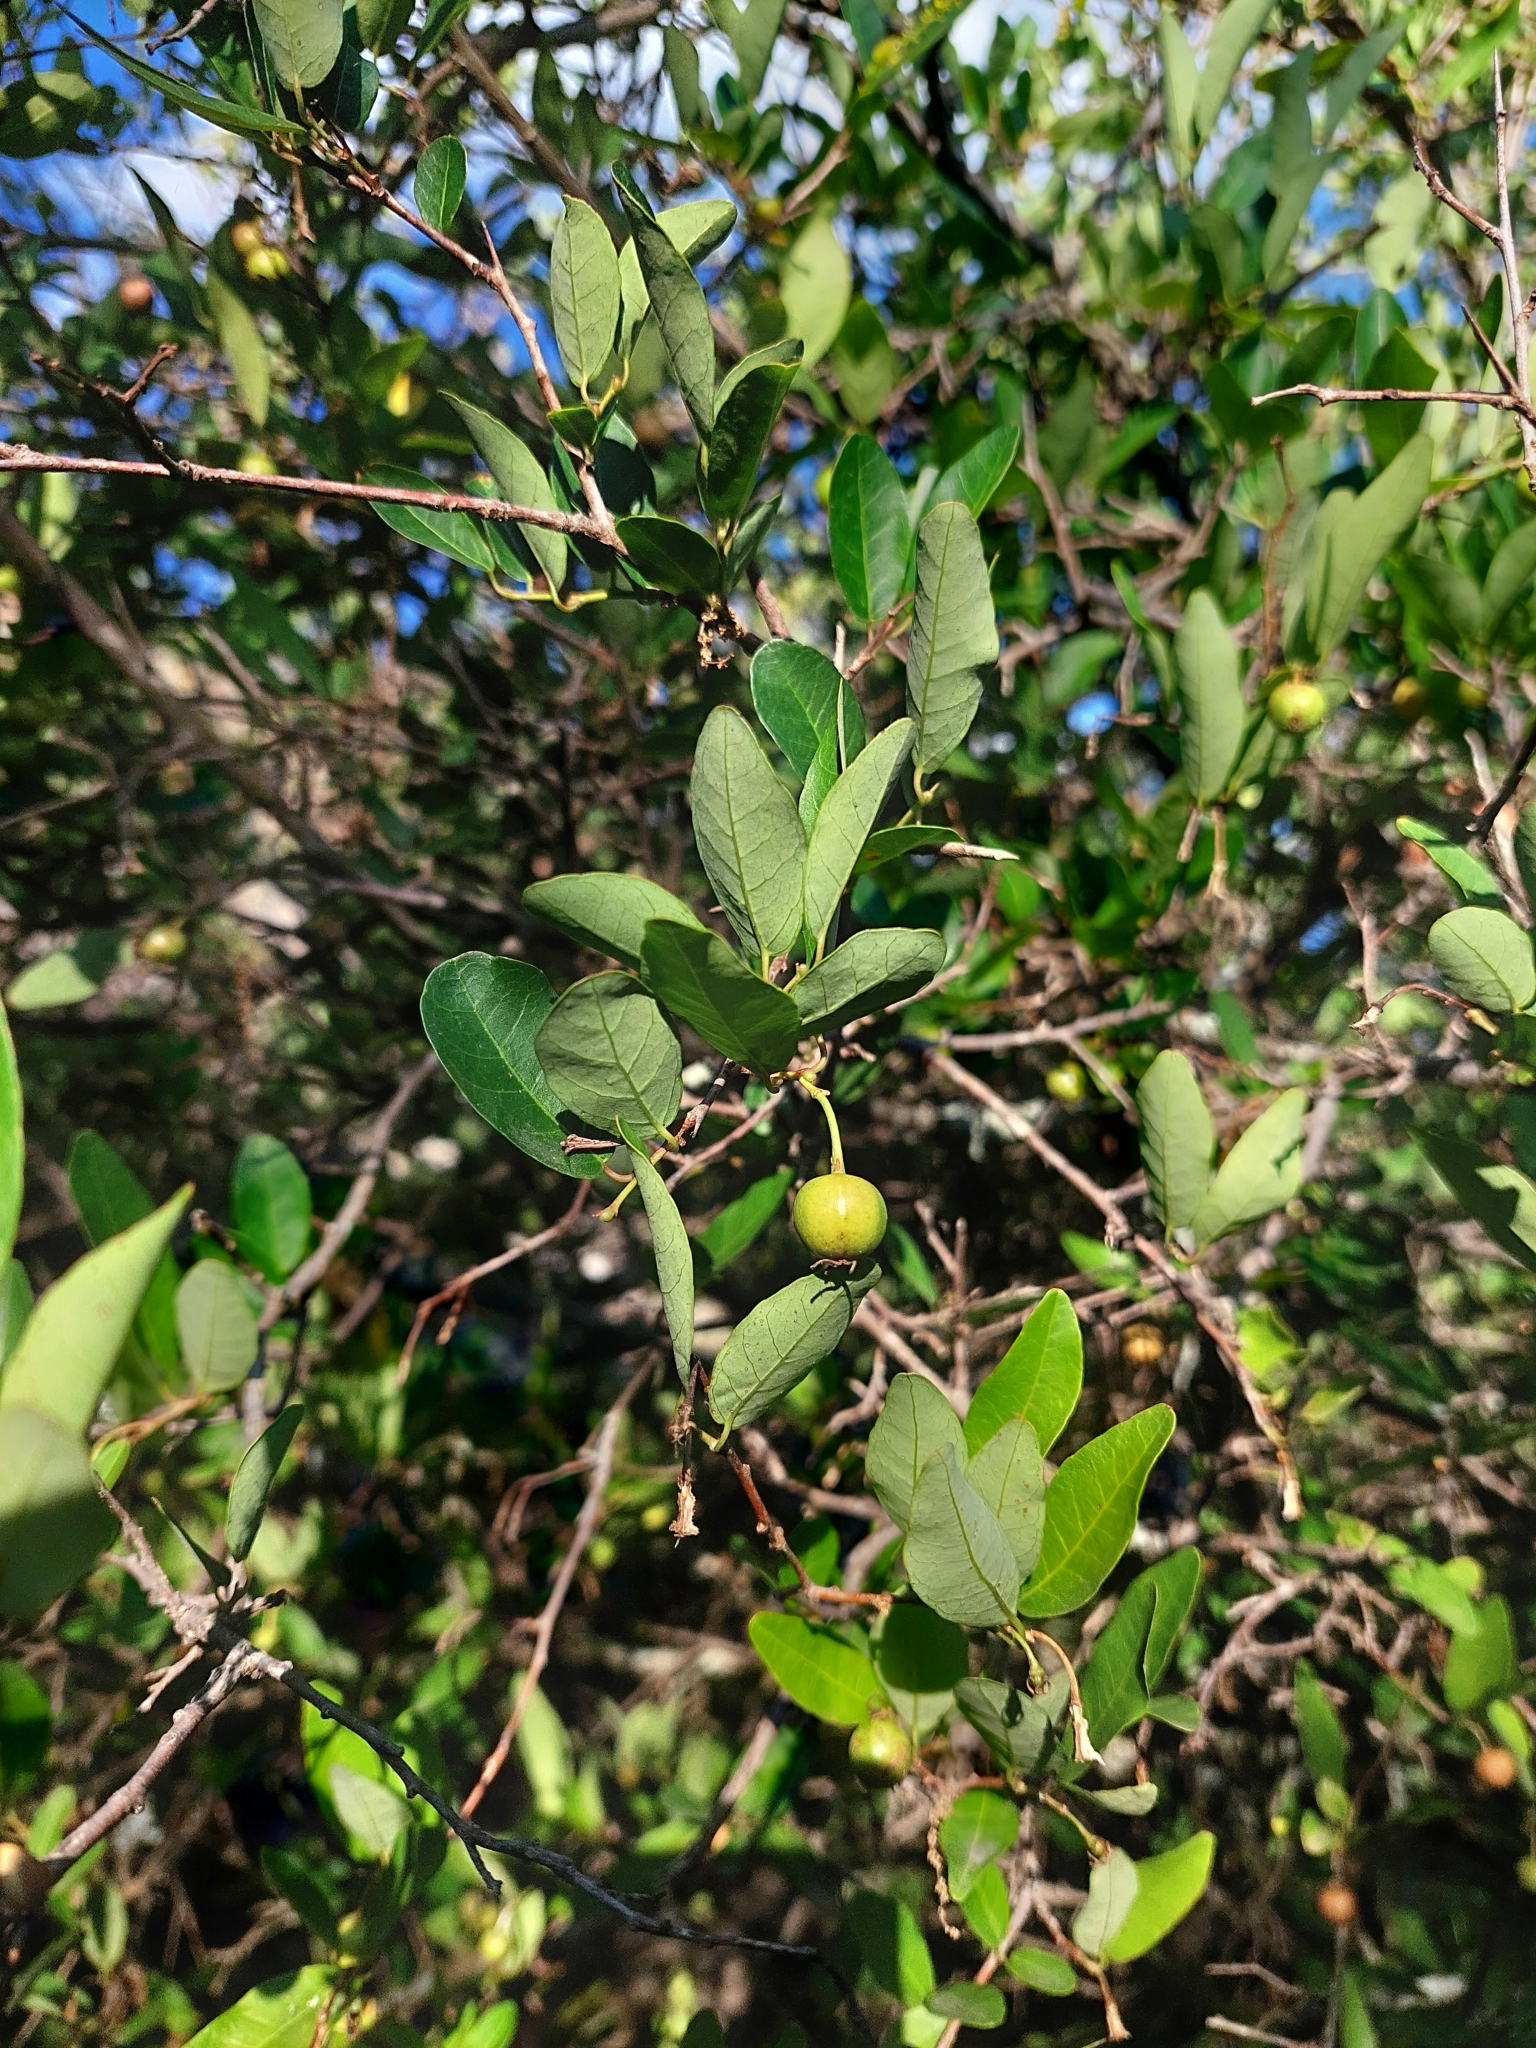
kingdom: Plantae
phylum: Tracheophyta
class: Magnoliopsida
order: Malpighiales
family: Euphorbiaceae
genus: Sebastiania
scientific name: Sebastiania klotzschiana
